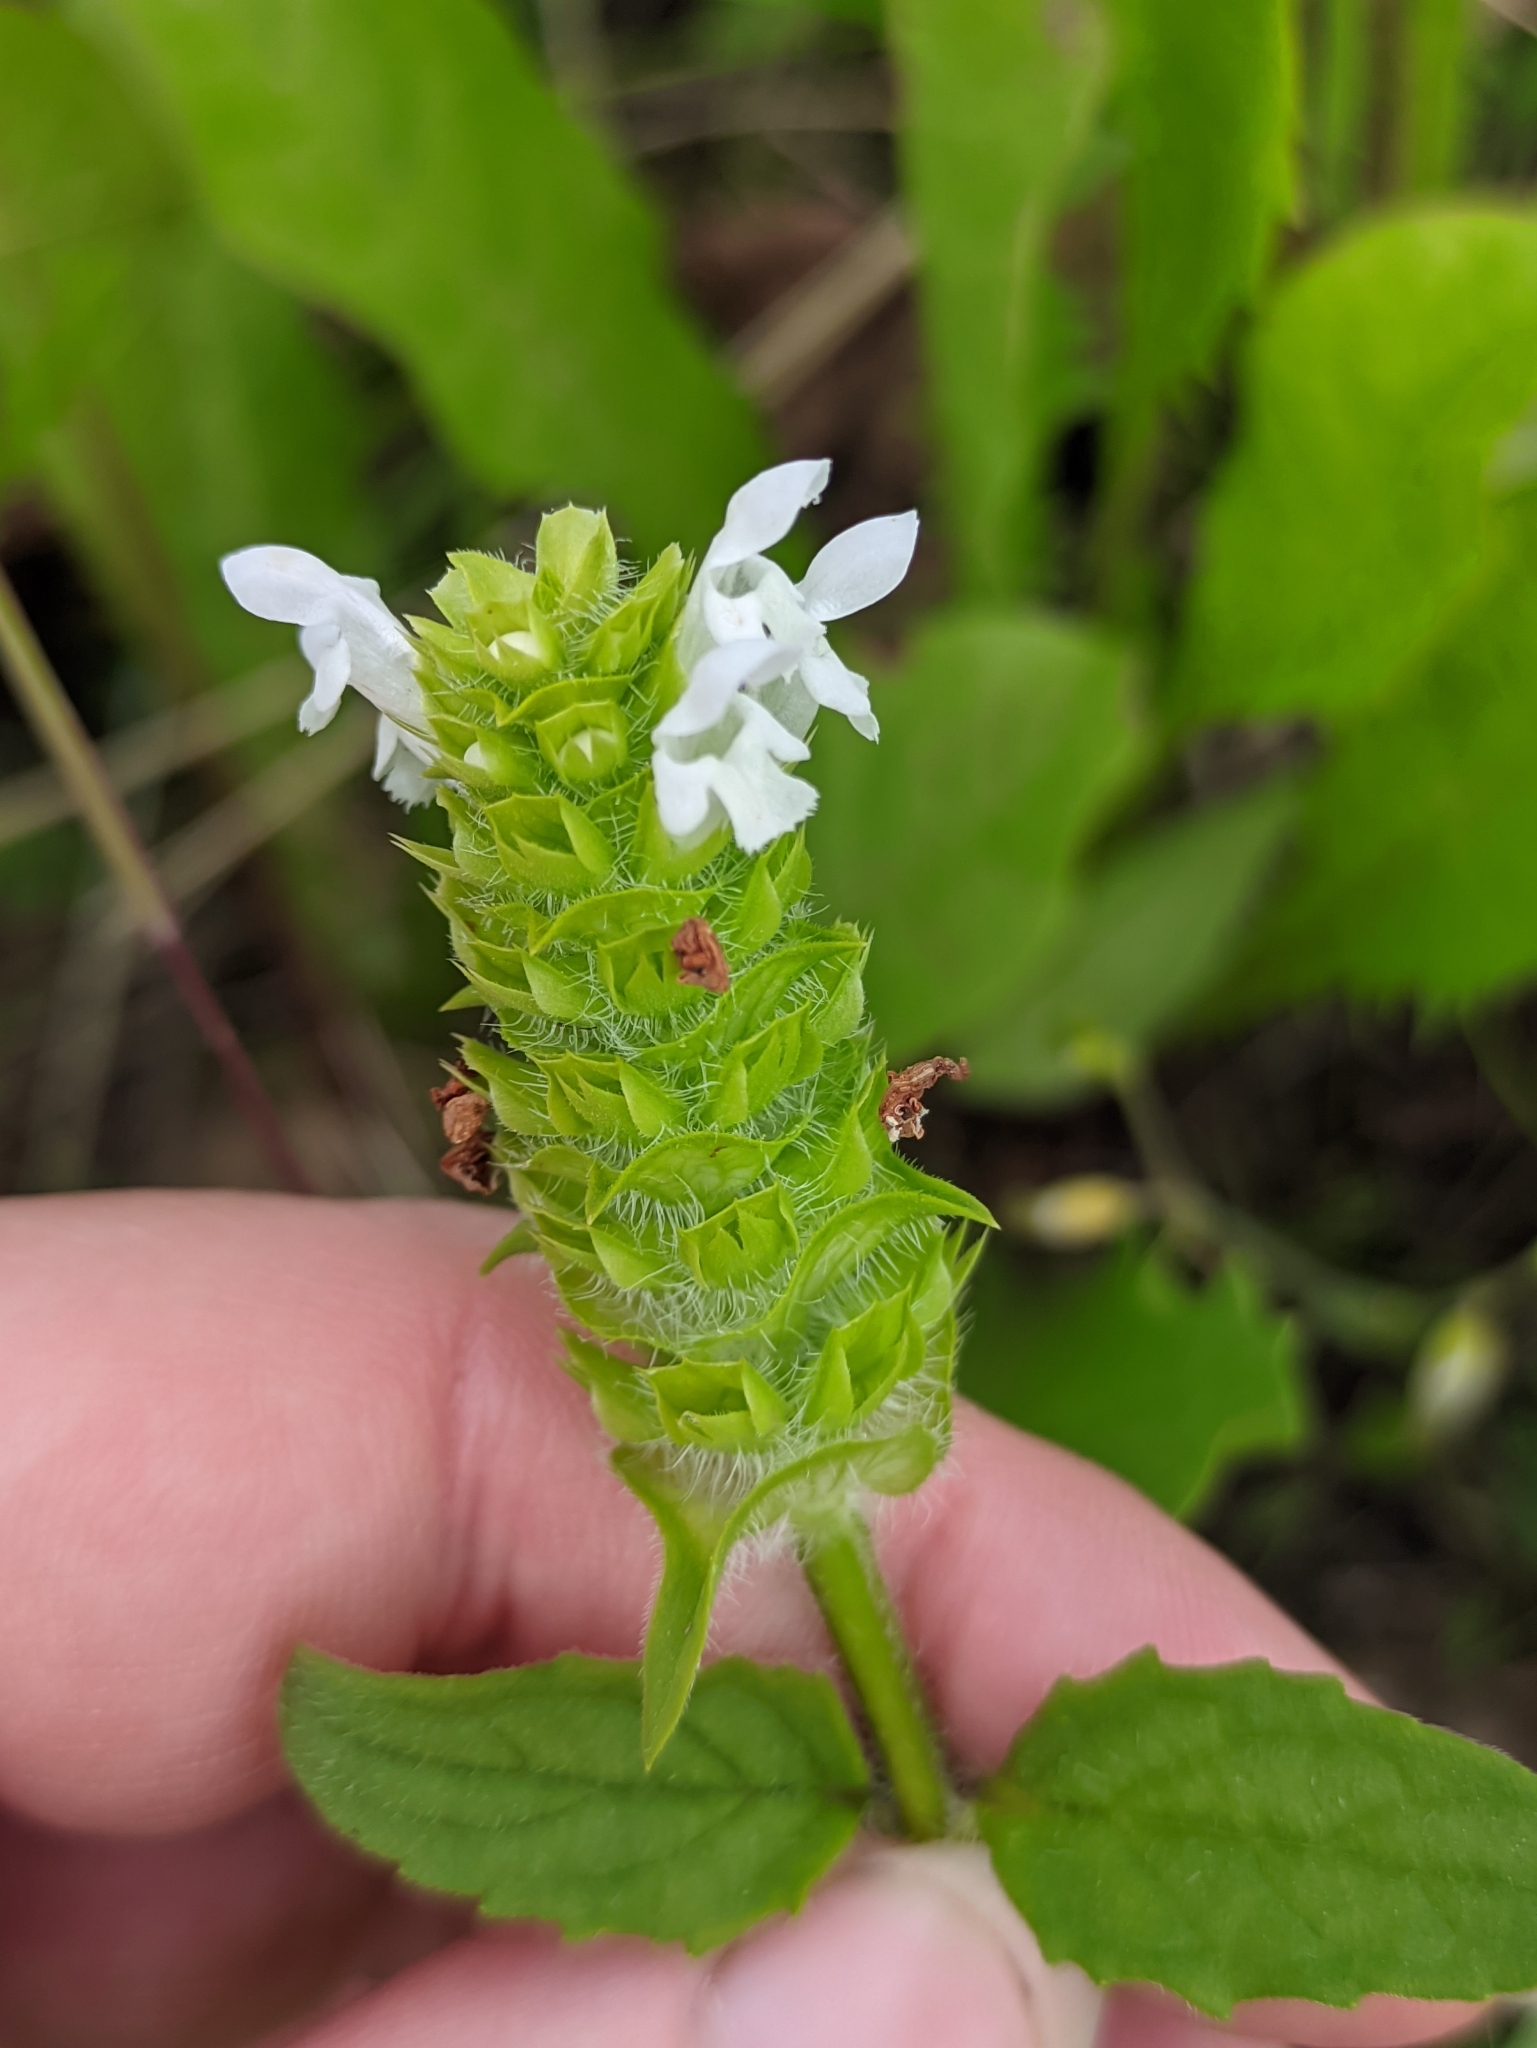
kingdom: Plantae
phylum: Tracheophyta
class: Magnoliopsida
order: Lamiales
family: Lamiaceae
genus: Prunella
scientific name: Prunella vulgaris
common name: Heal-all
